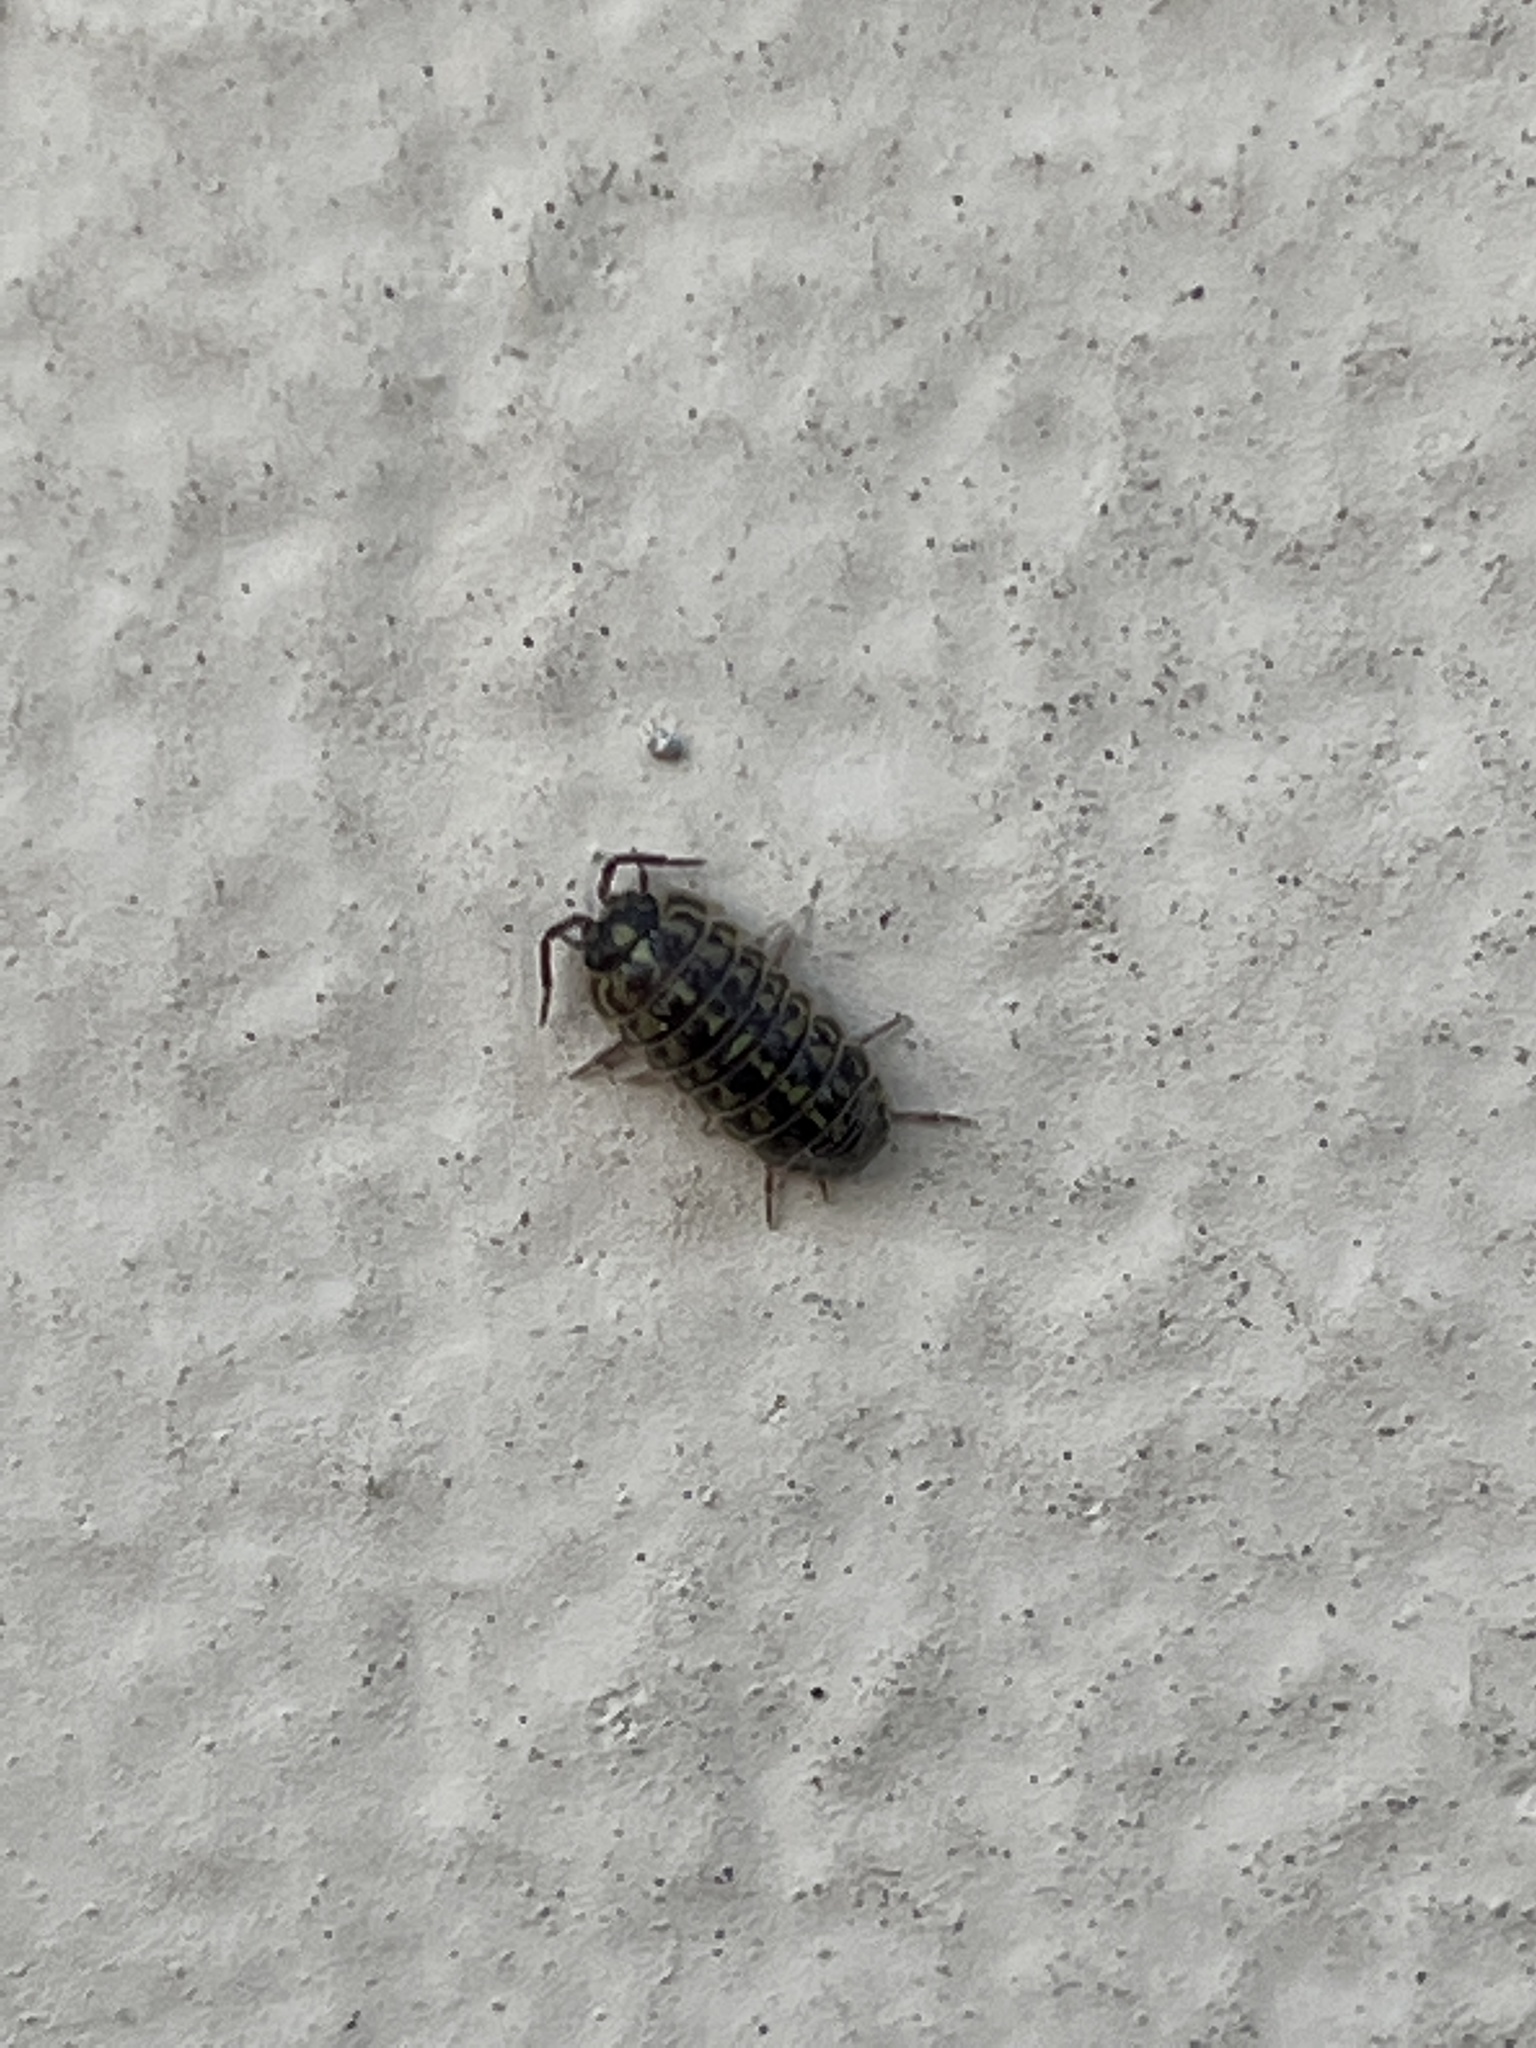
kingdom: Animalia
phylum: Arthropoda
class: Malacostraca
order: Isopoda
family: Armadillidiidae
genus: Armadillidium
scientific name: Armadillidium versicolor
